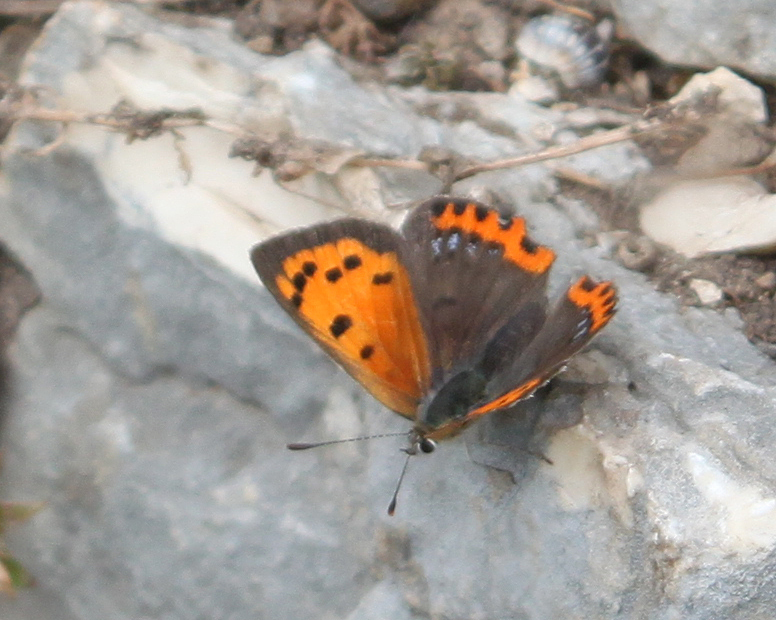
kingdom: Animalia
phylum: Arthropoda
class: Insecta
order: Lepidoptera
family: Lycaenidae
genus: Lycaena
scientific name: Lycaena phlaeas
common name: Small copper
